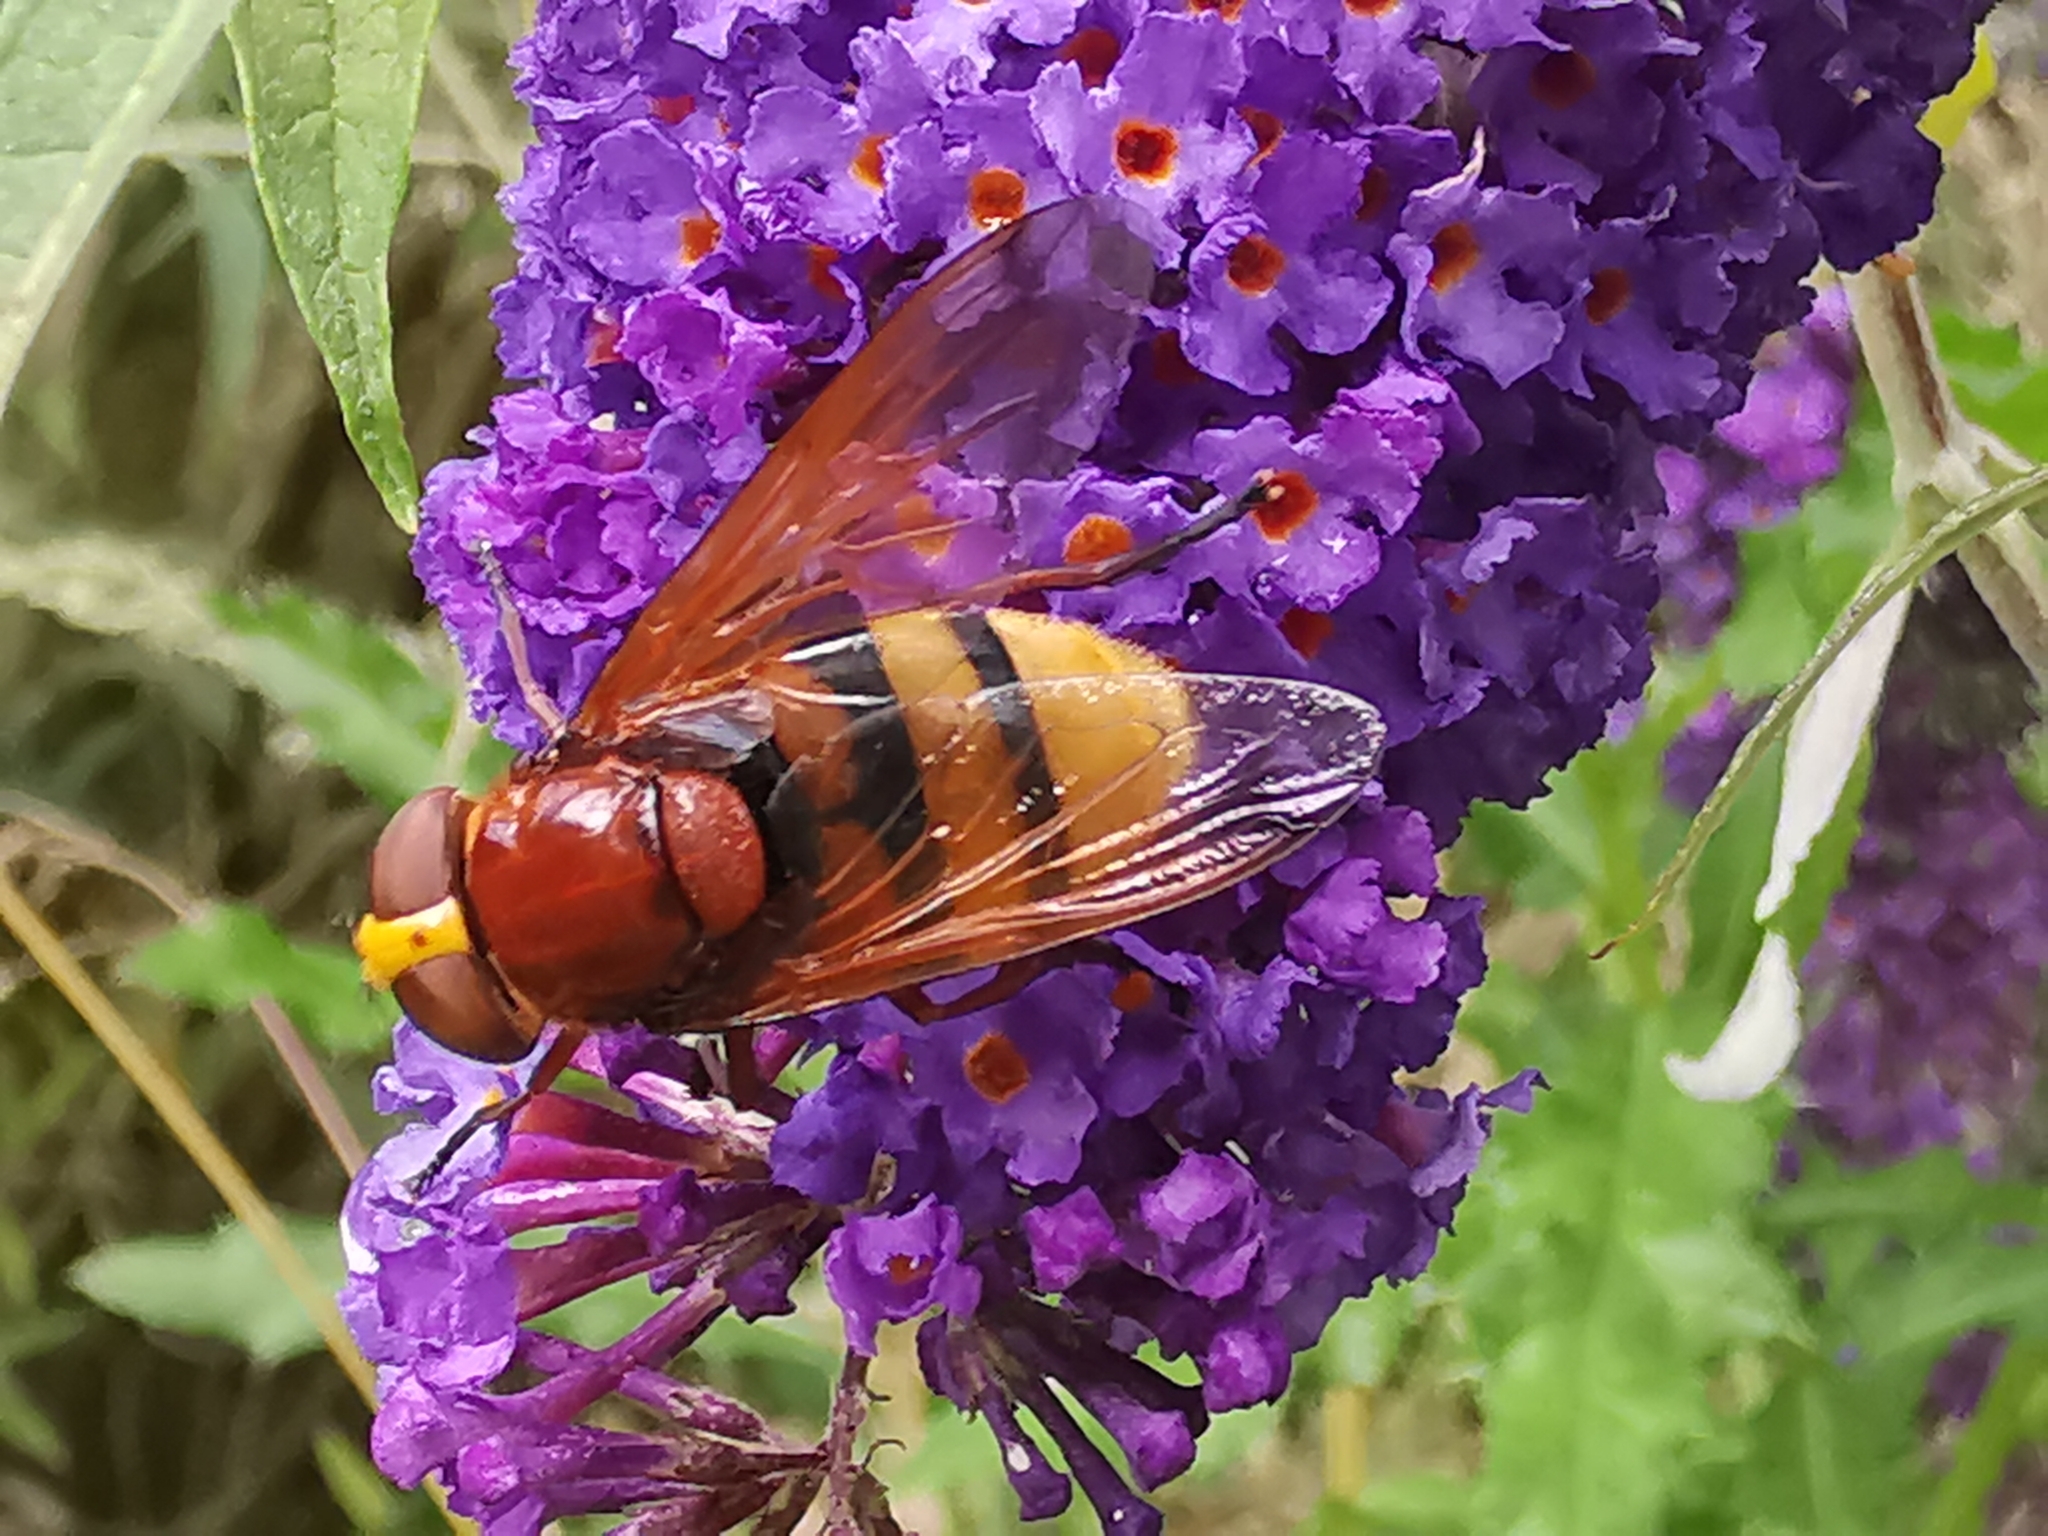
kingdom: Animalia
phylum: Arthropoda
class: Insecta
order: Diptera
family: Syrphidae
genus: Volucella
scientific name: Volucella zonaria
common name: Hornet hoverfly
